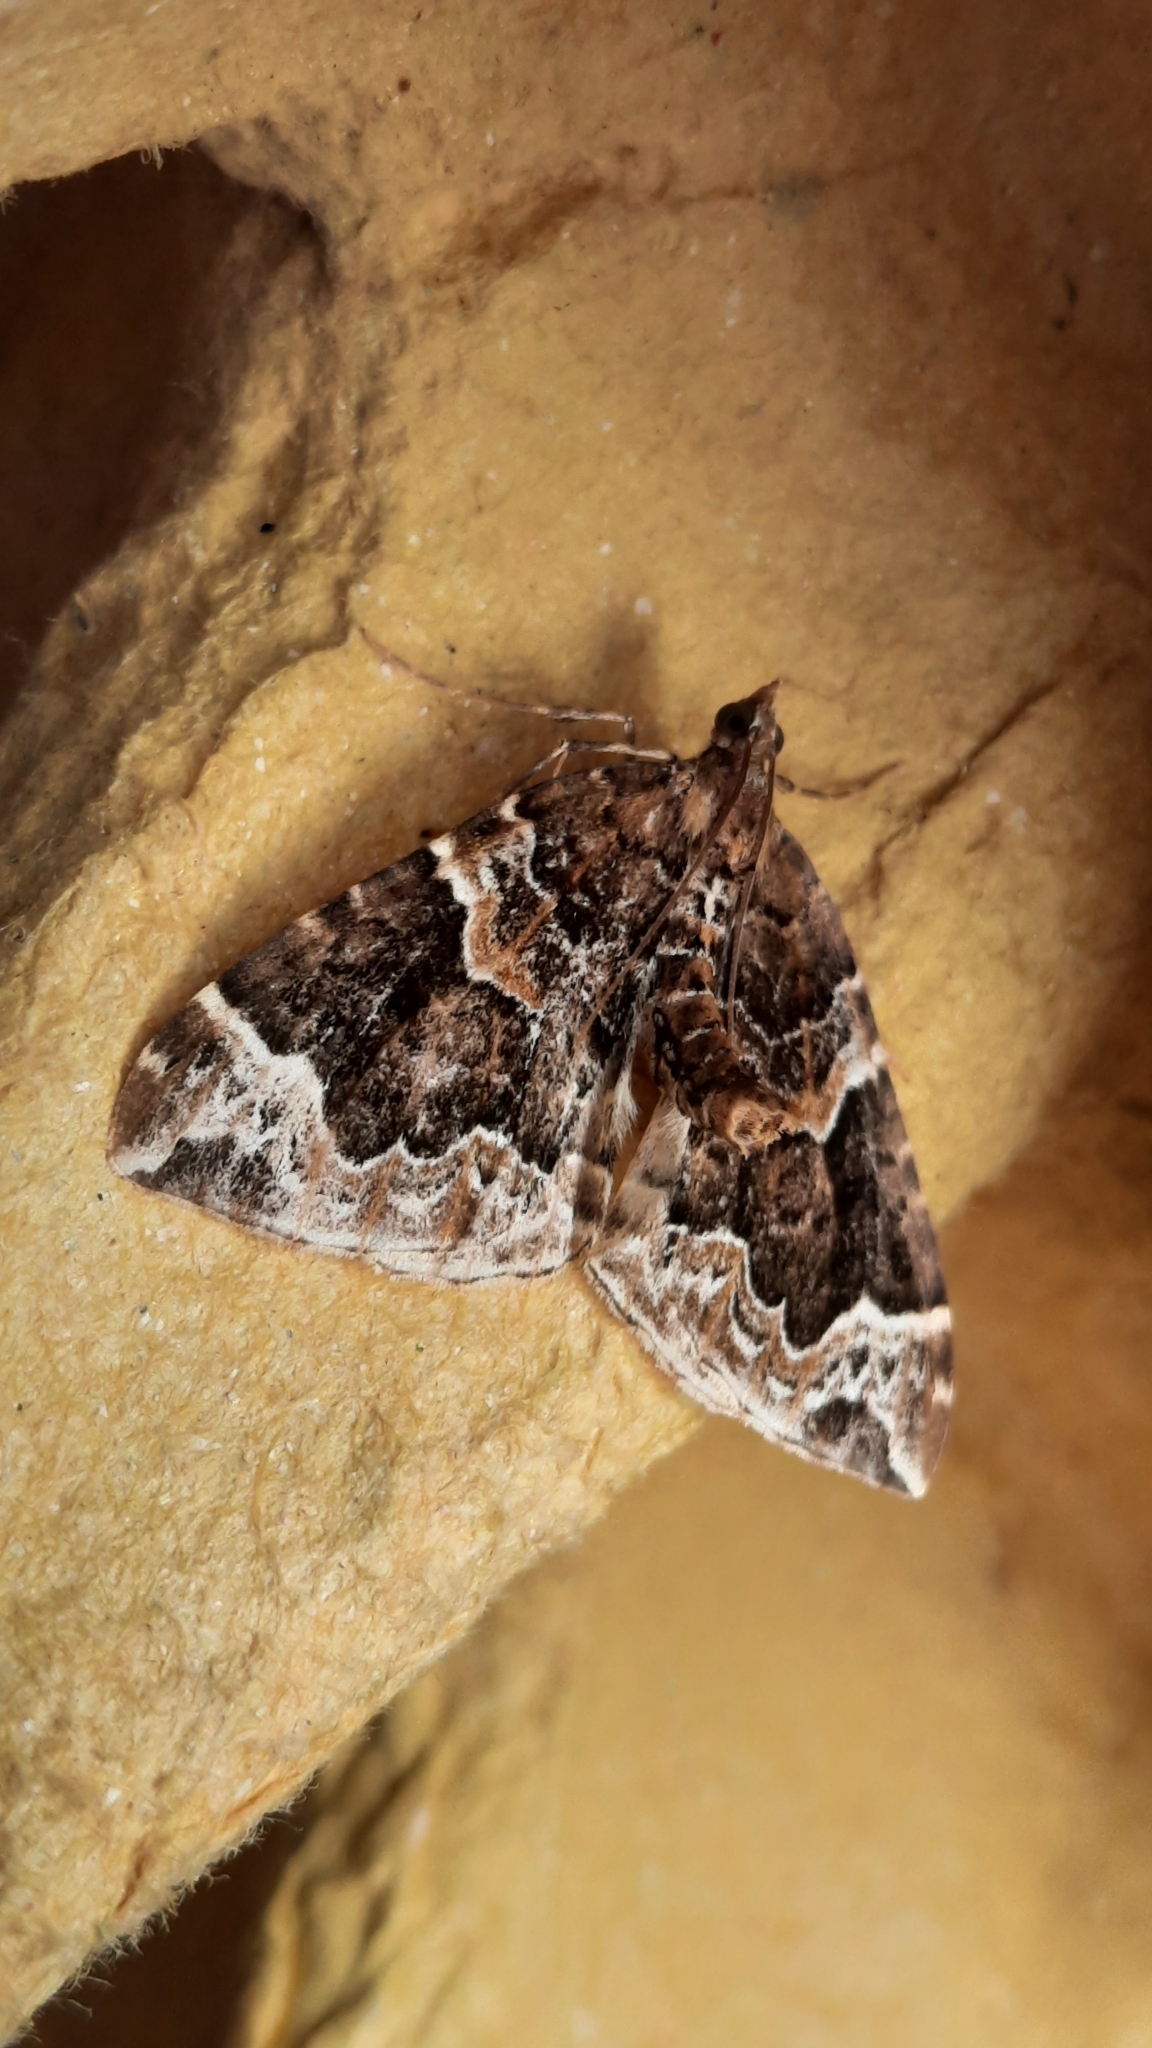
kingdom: Animalia
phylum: Arthropoda
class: Insecta
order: Lepidoptera
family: Geometridae
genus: Eulithis
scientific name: Eulithis prunata
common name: Phoenix
